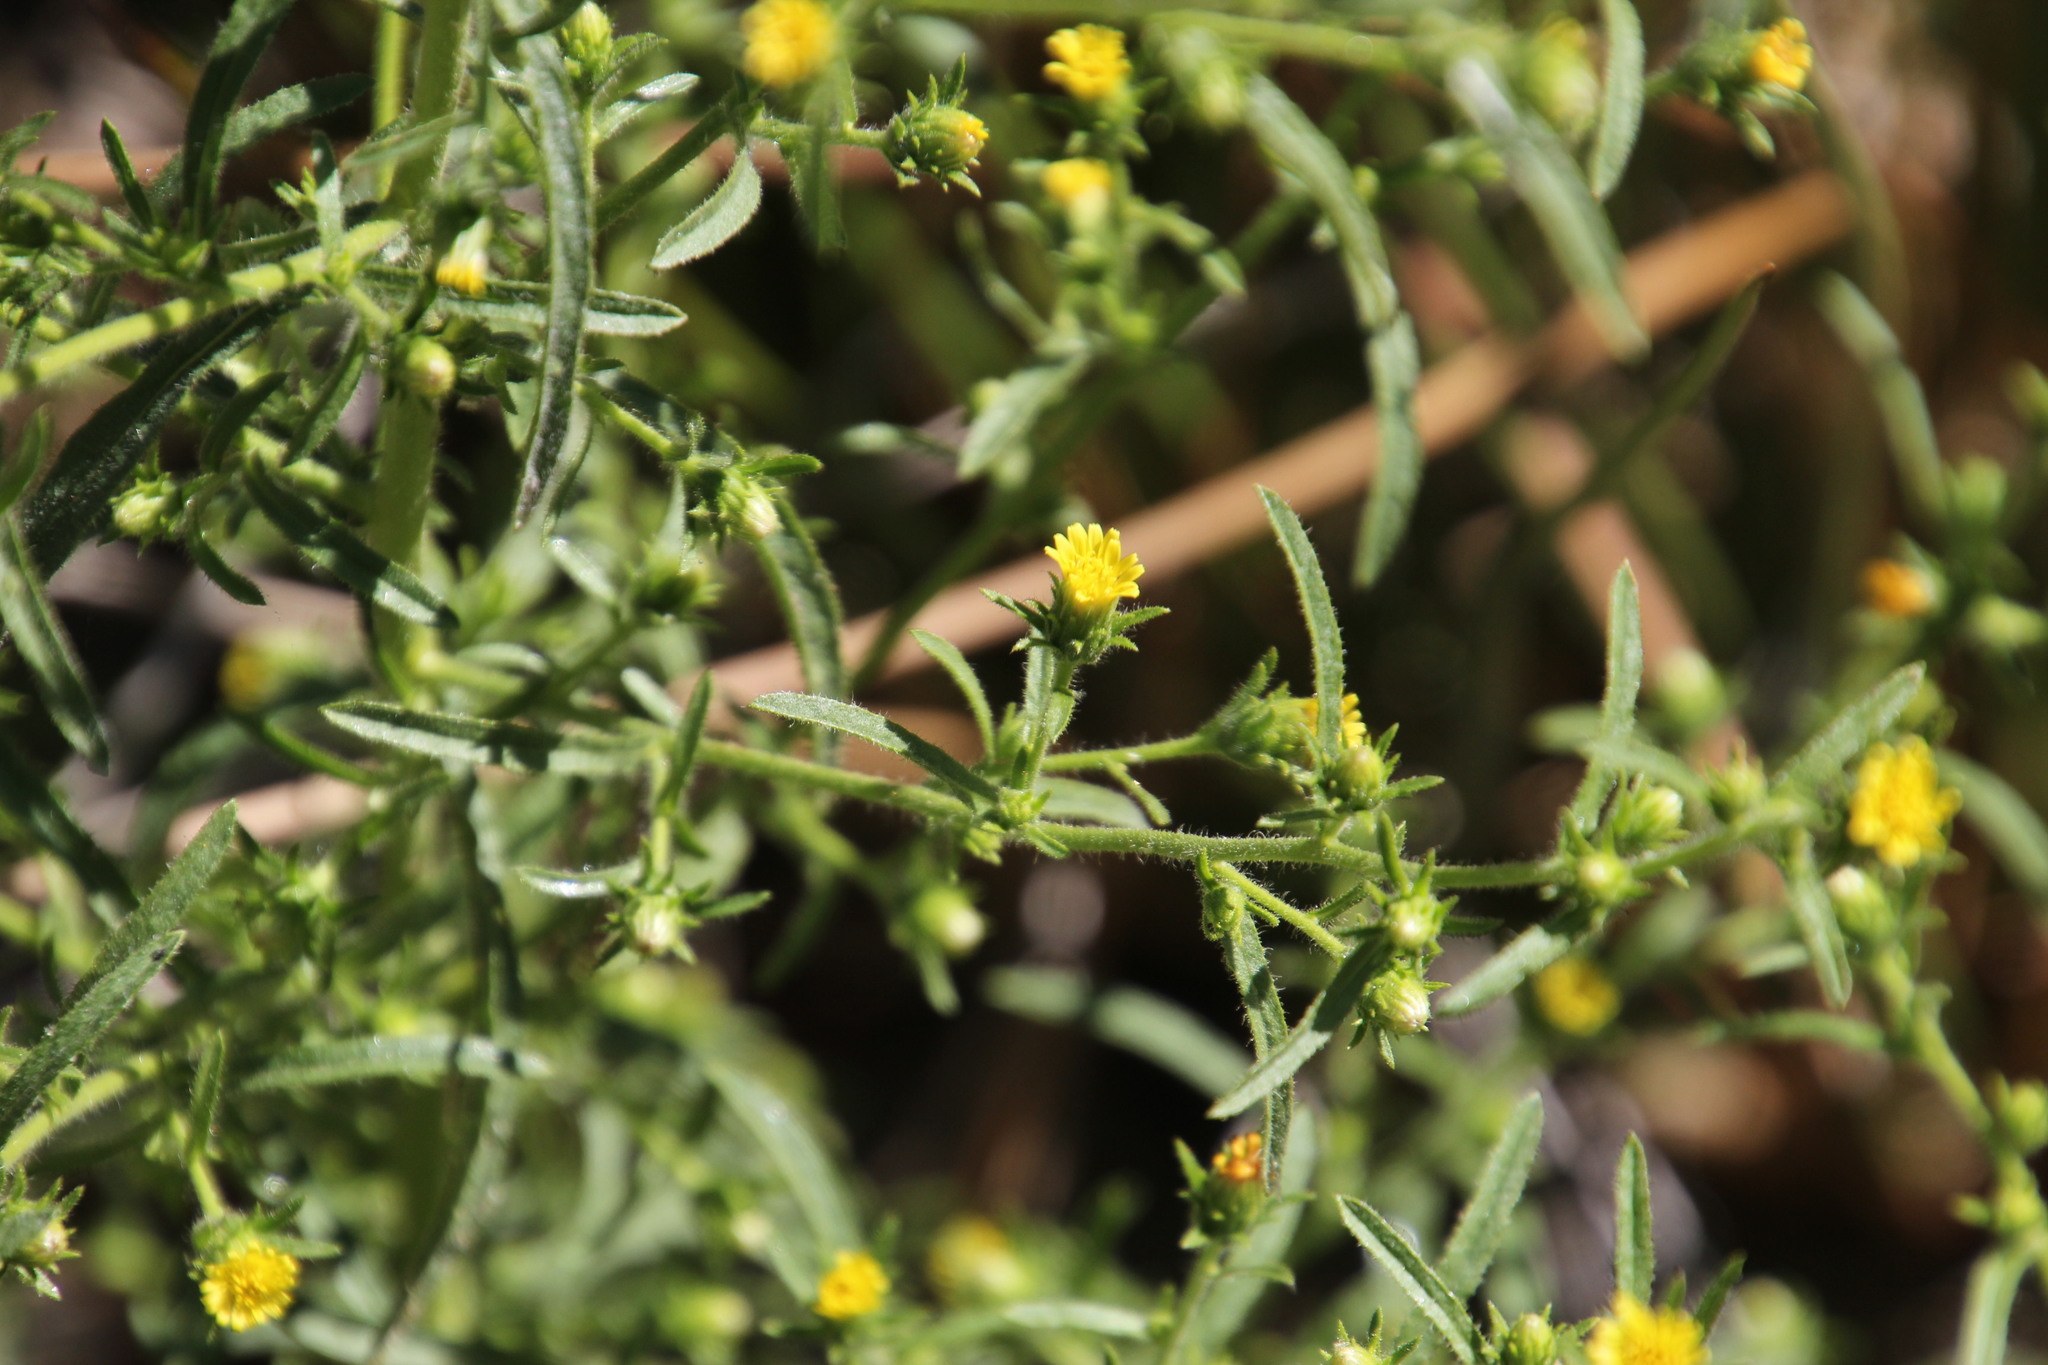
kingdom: Plantae
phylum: Tracheophyta
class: Magnoliopsida
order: Asterales
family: Asteraceae
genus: Dittrichia
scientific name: Dittrichia graveolens
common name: Stinking fleabane
